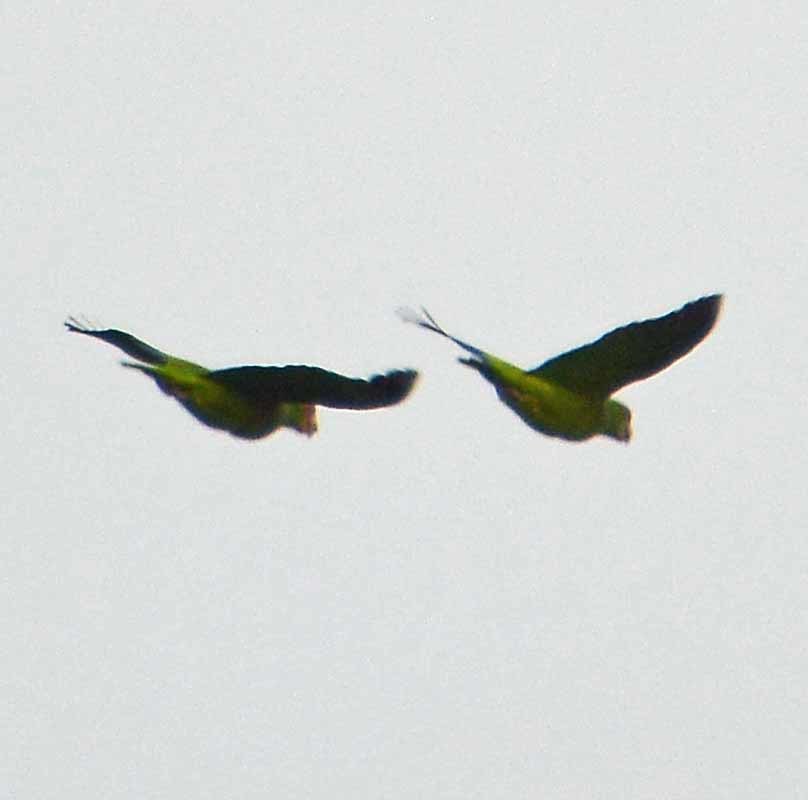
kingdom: Animalia
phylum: Chordata
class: Aves
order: Psittaciformes
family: Psittacidae
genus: Aratinga
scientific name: Aratinga nana
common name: Olive-throated parakeet
